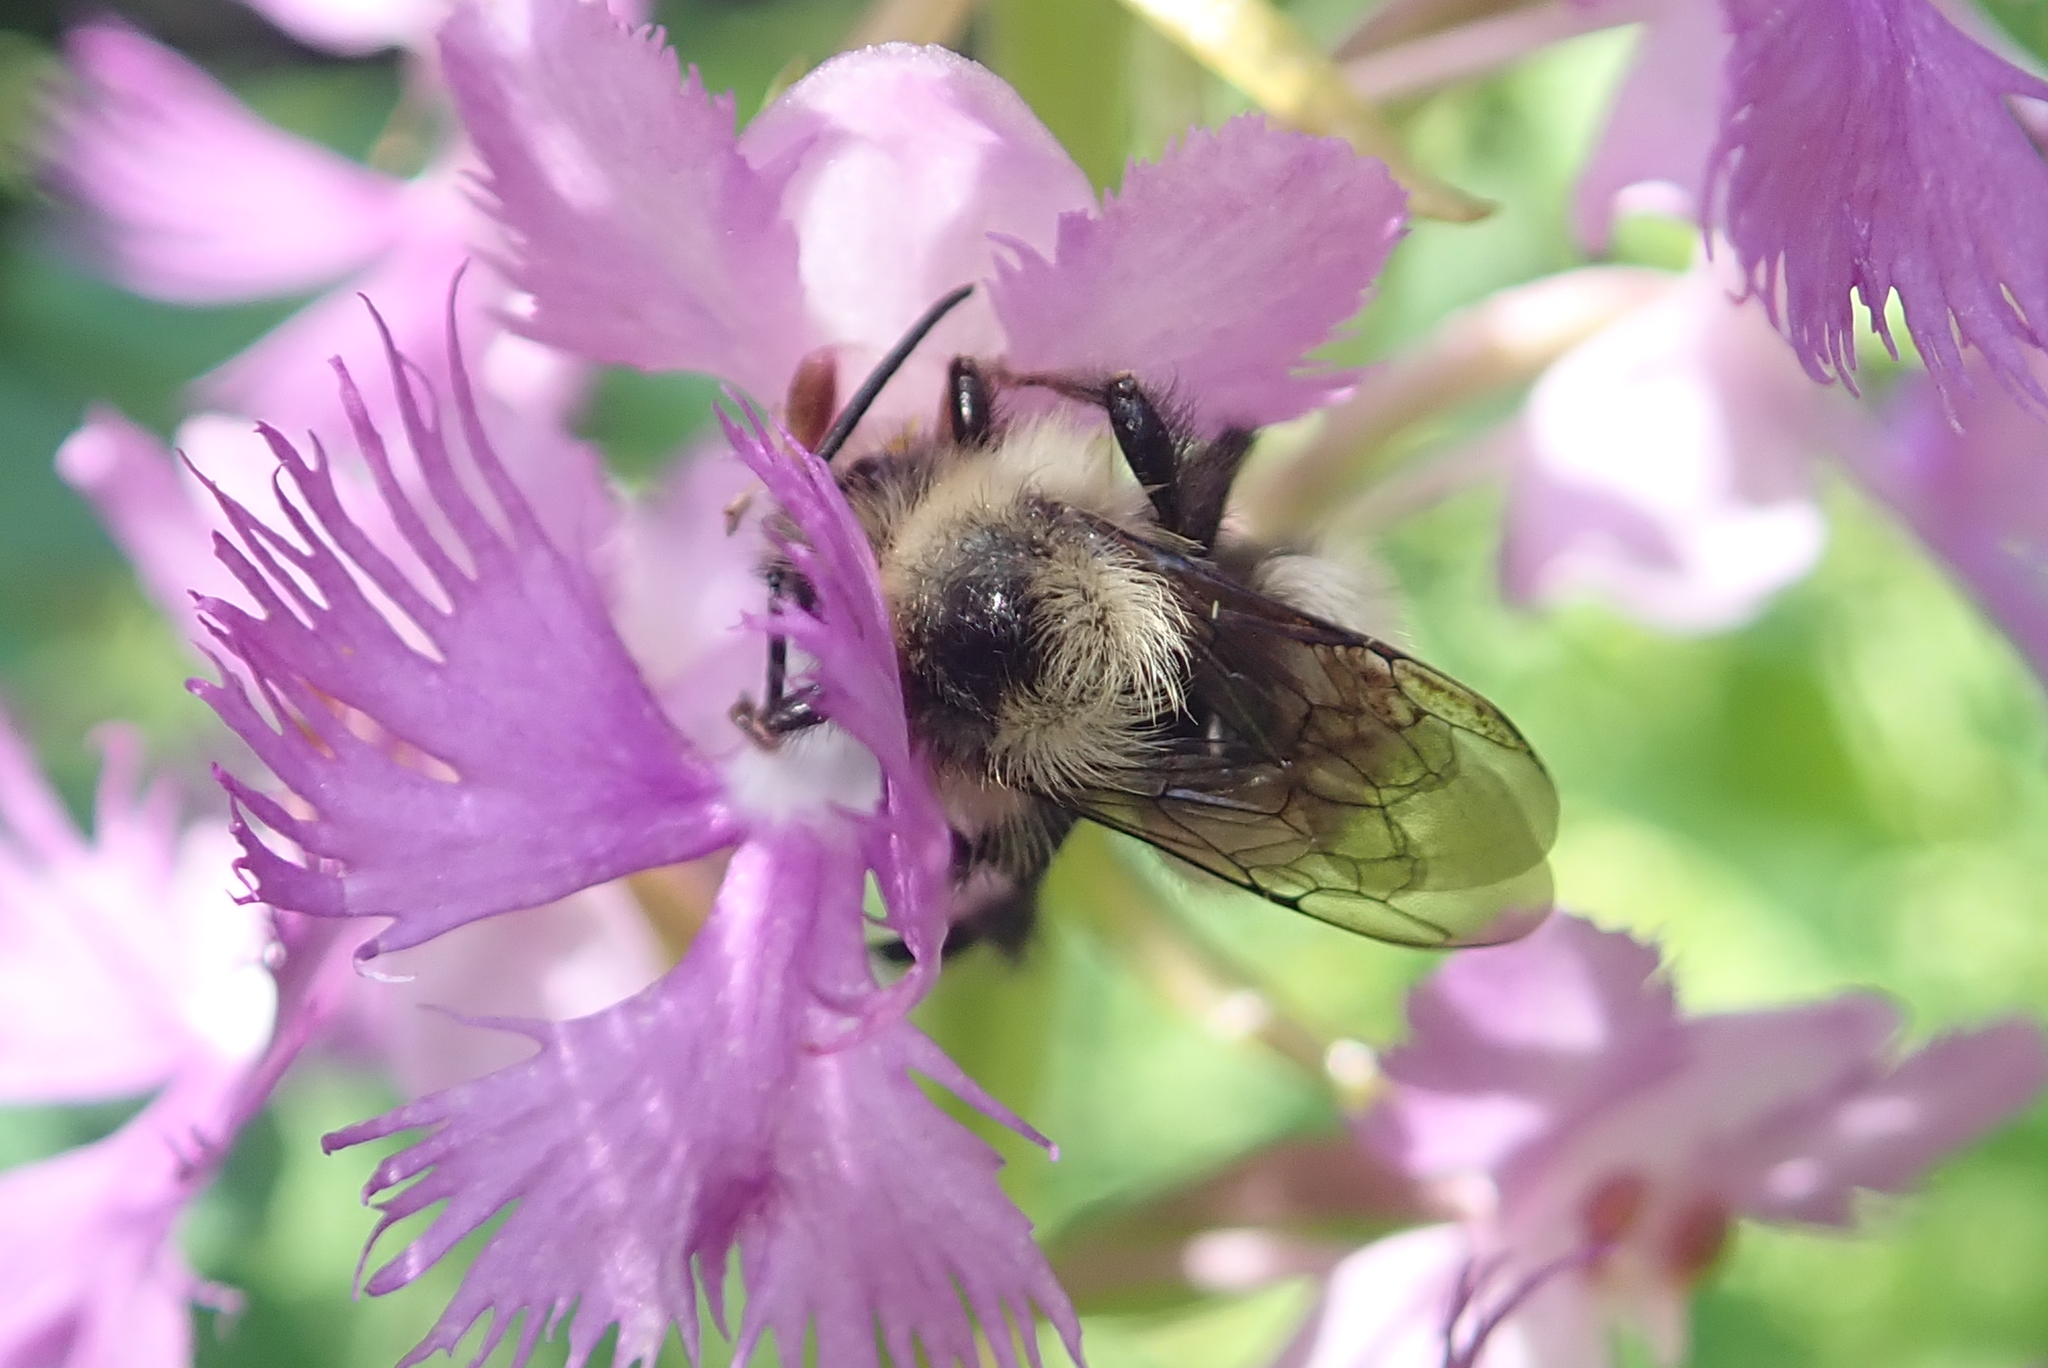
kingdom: Animalia
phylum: Arthropoda
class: Insecta
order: Hymenoptera
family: Apidae
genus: Pyrobombus
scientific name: Pyrobombus
